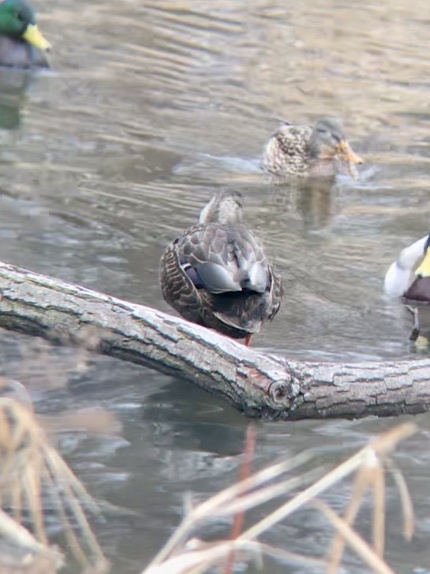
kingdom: Animalia
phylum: Chordata
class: Aves
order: Anseriformes
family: Anatidae
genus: Anas
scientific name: Anas
